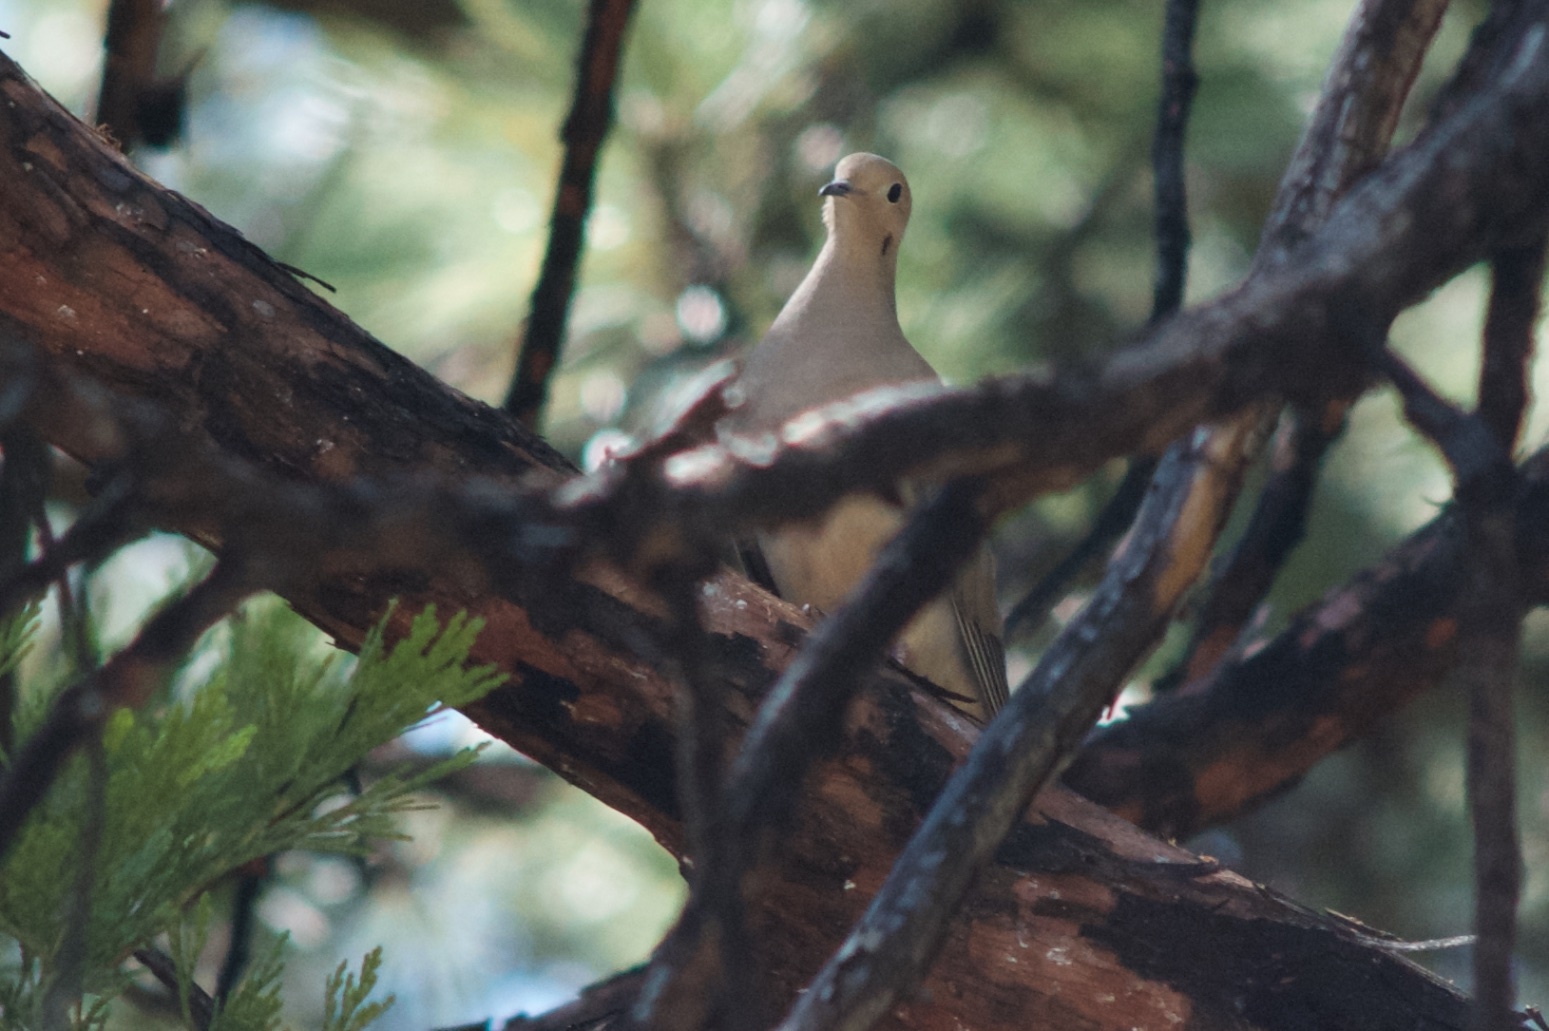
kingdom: Animalia
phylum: Chordata
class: Aves
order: Columbiformes
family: Columbidae
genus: Zenaida
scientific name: Zenaida macroura
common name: Mourning dove
